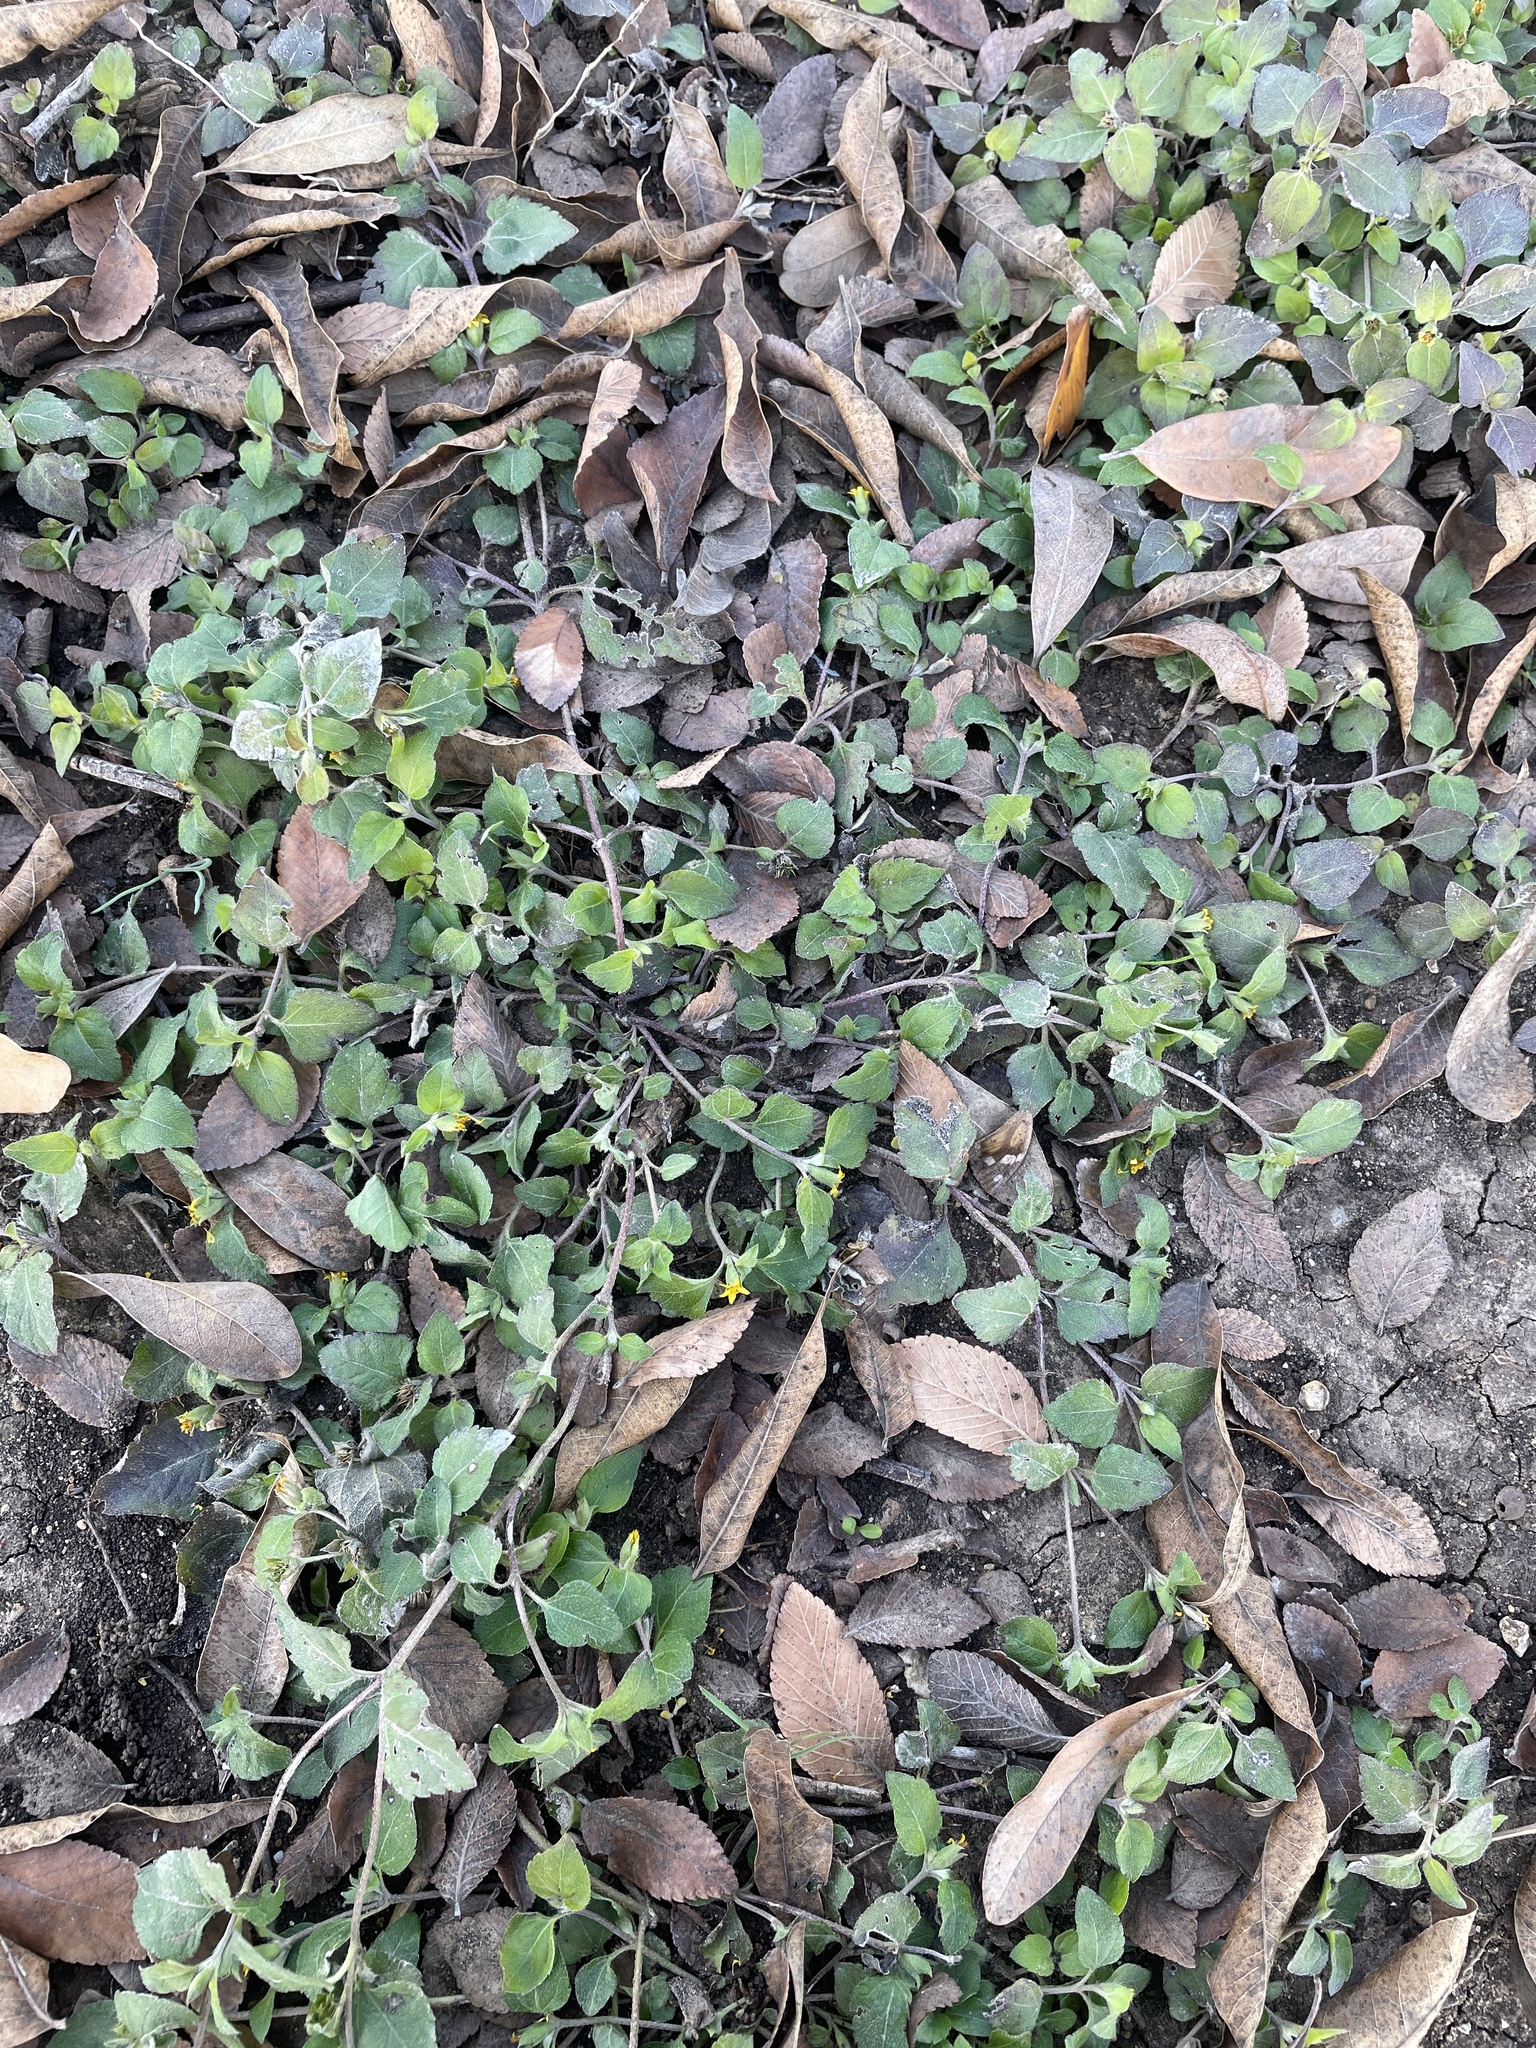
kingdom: Plantae
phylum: Tracheophyta
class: Magnoliopsida
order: Asterales
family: Asteraceae
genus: Calyptocarpus
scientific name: Calyptocarpus vialis
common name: Straggler daisy
